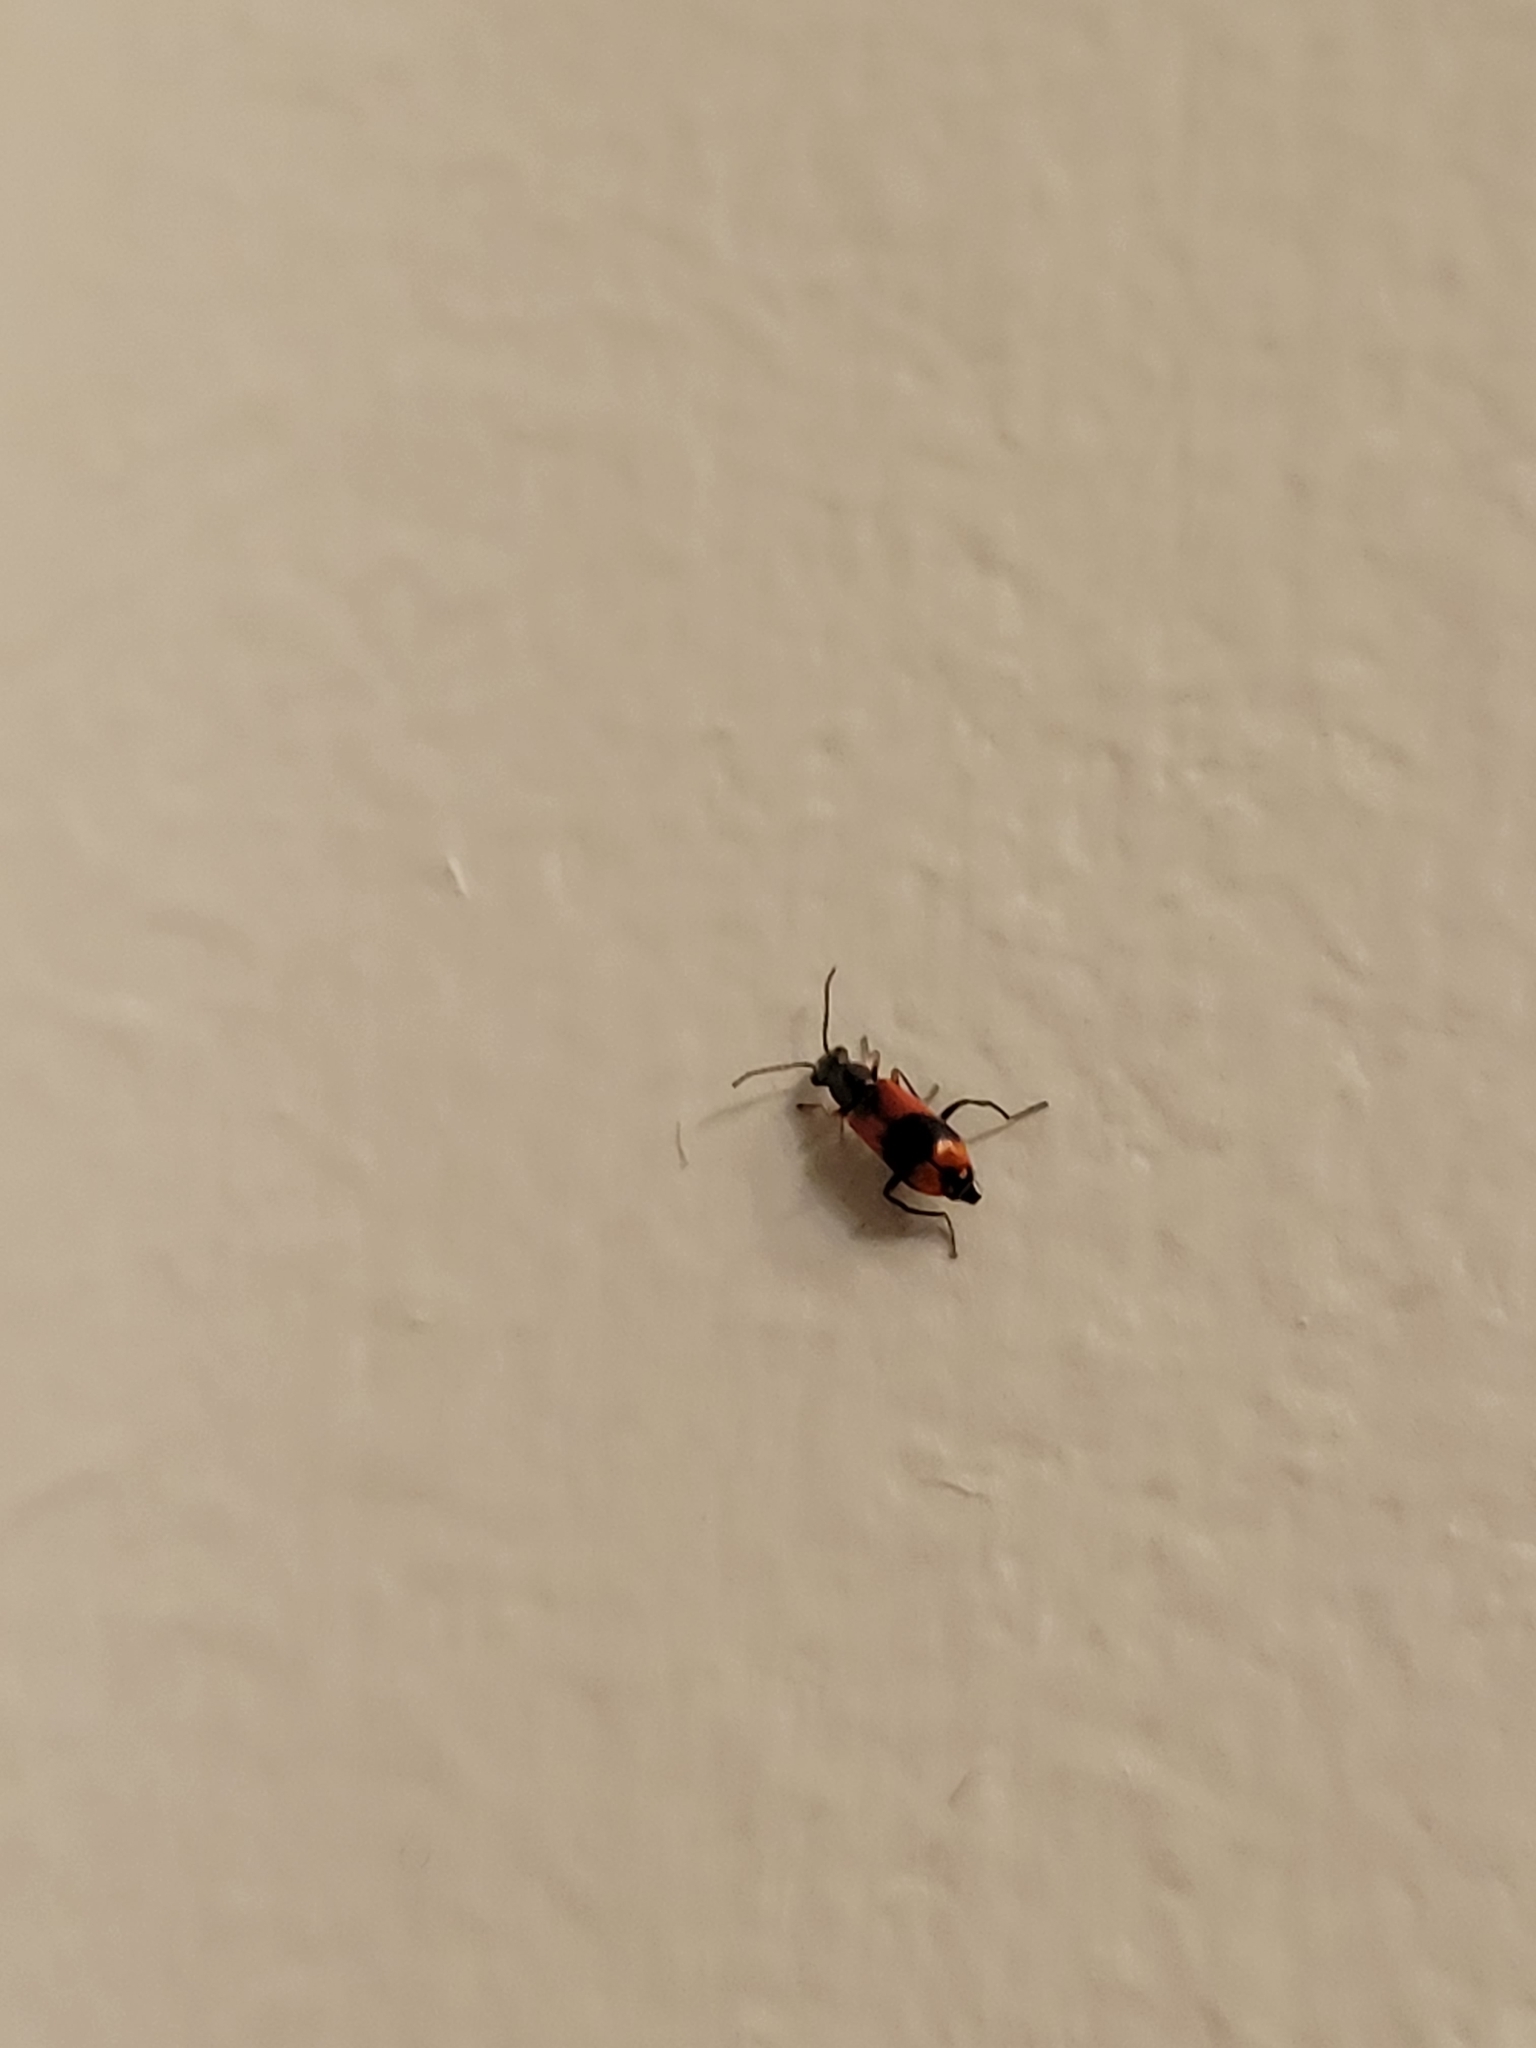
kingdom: Animalia
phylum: Arthropoda
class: Insecta
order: Coleoptera
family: Melyridae
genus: Anthocomus
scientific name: Anthocomus equestris
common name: Black-banded soft-winged flower beetle
